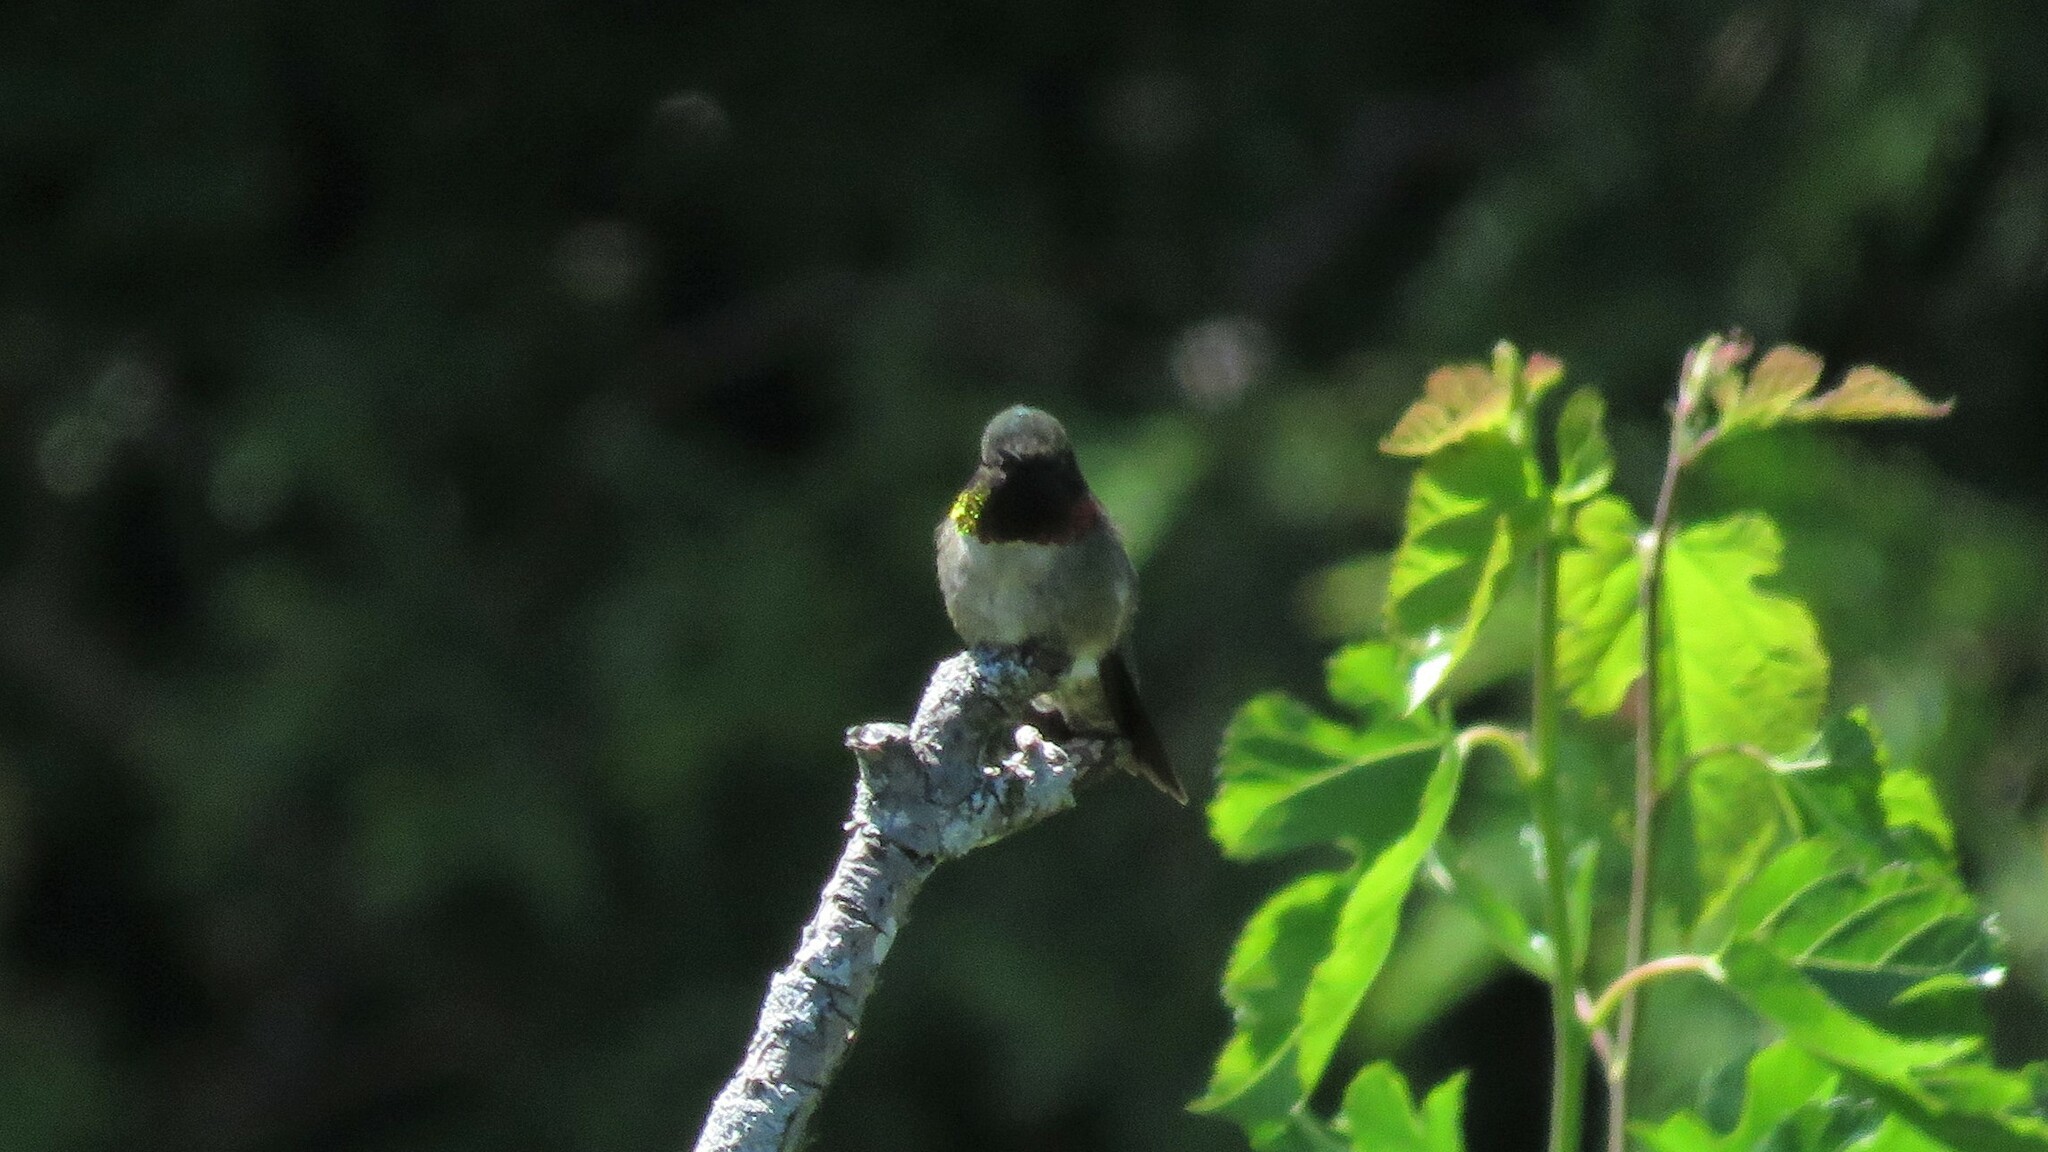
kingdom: Animalia
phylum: Chordata
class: Aves
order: Apodiformes
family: Trochilidae
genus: Archilochus
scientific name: Archilochus colubris
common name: Ruby-throated hummingbird
